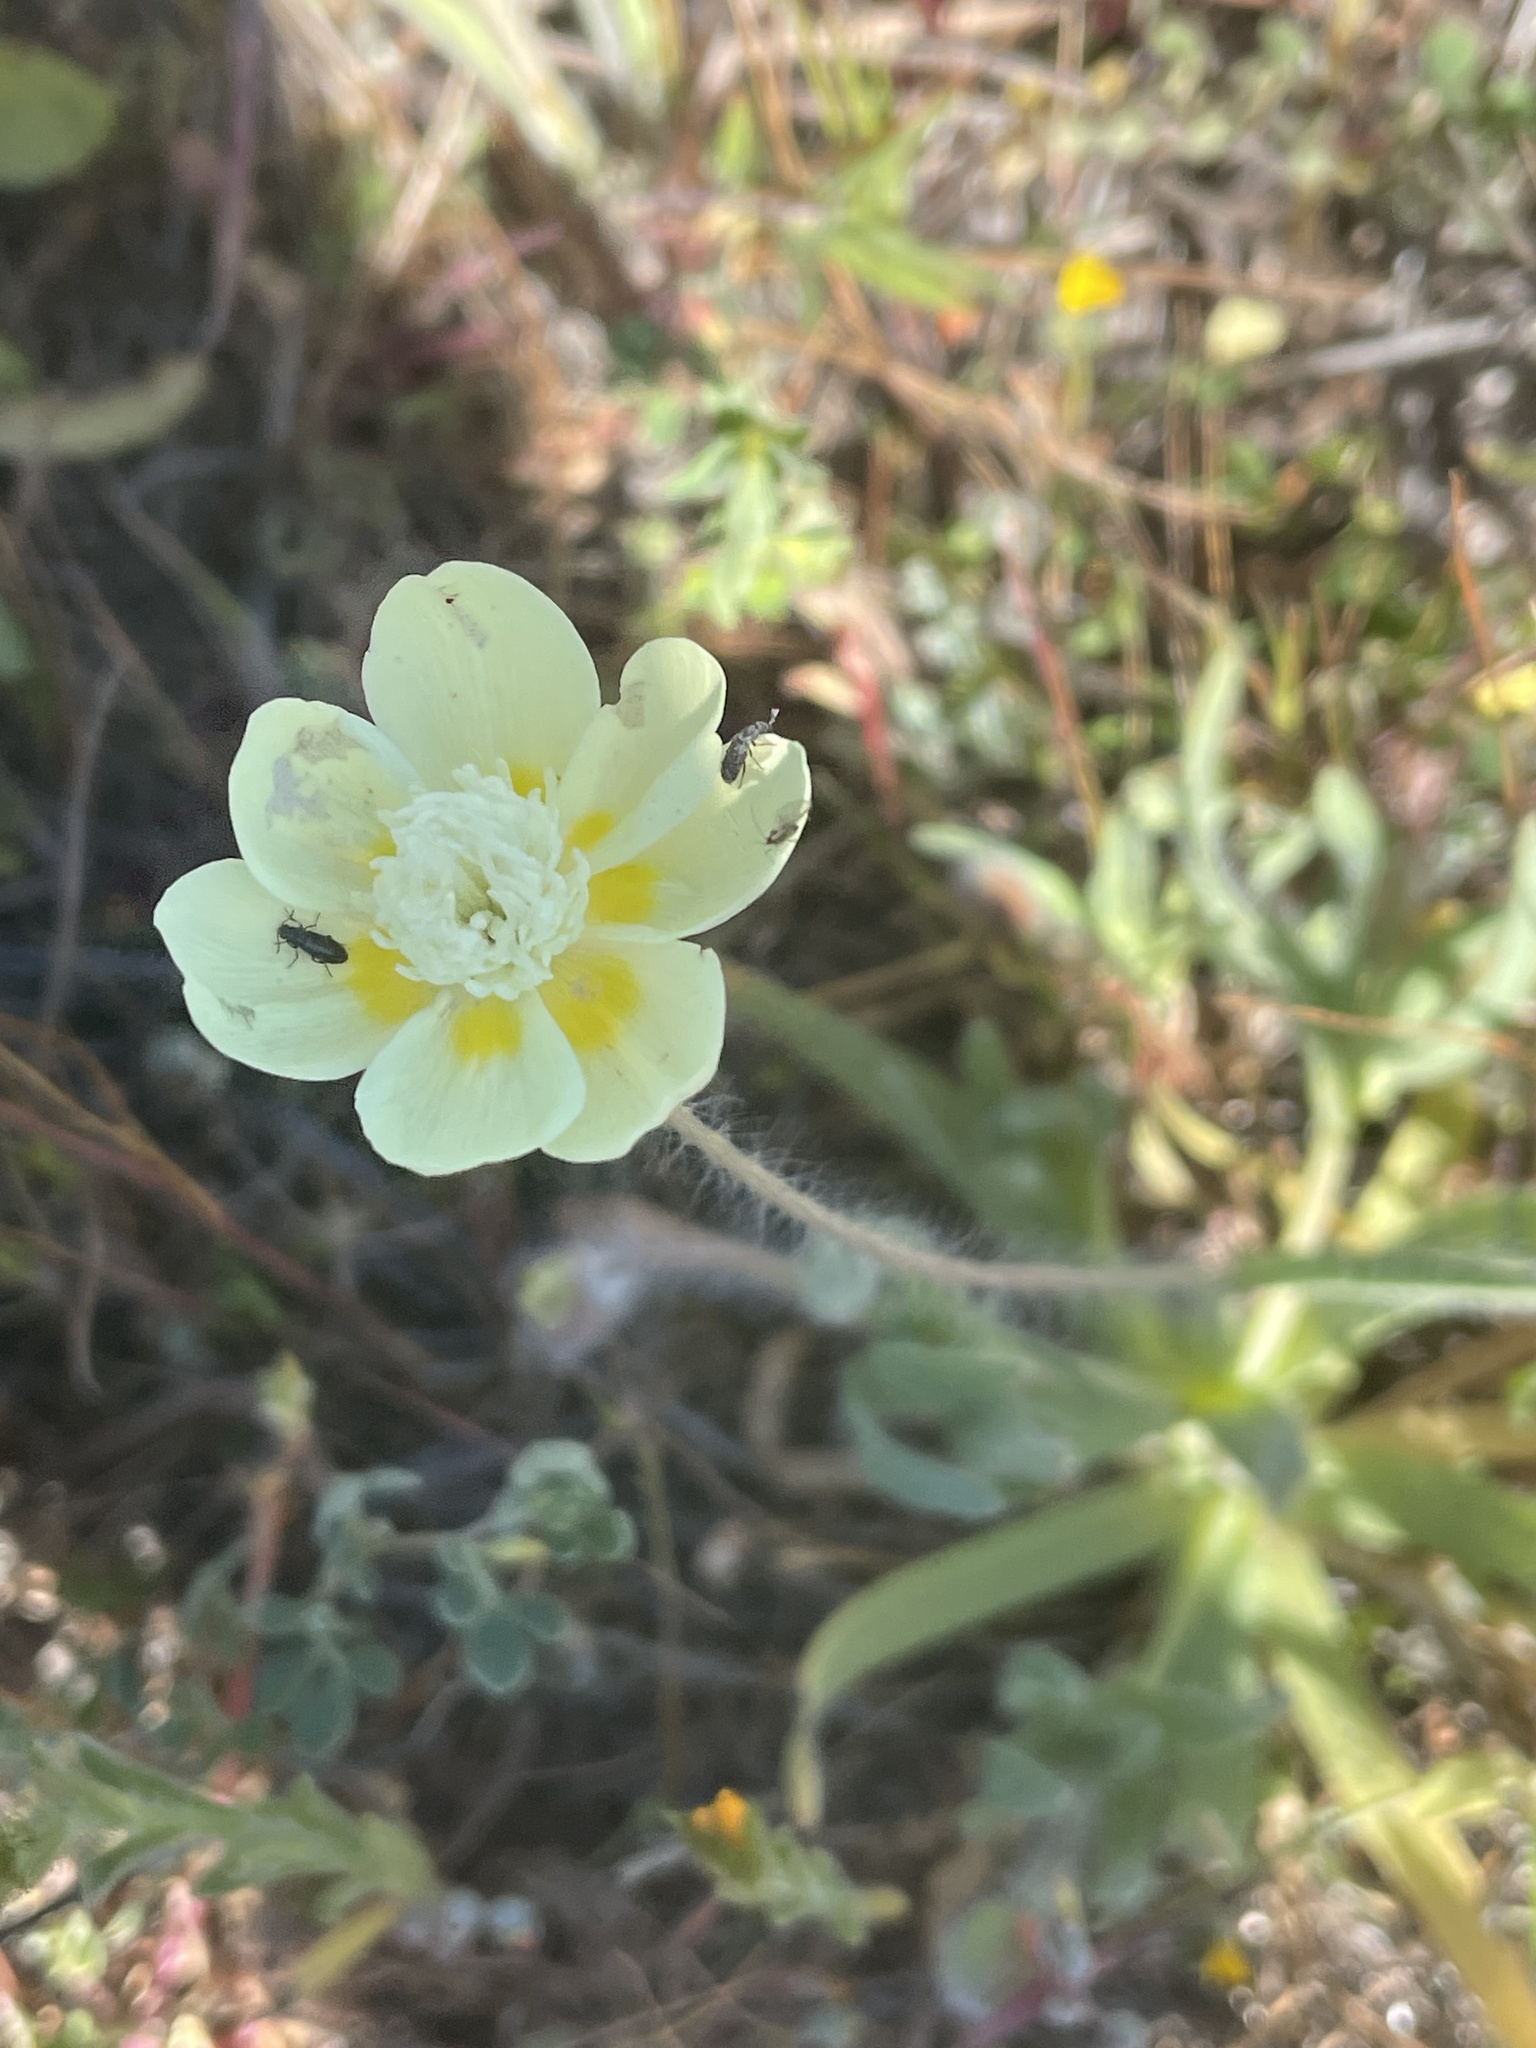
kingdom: Plantae
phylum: Tracheophyta
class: Magnoliopsida
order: Ranunculales
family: Papaveraceae
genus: Platystemon
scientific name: Platystemon californicus
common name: Cream-cups
